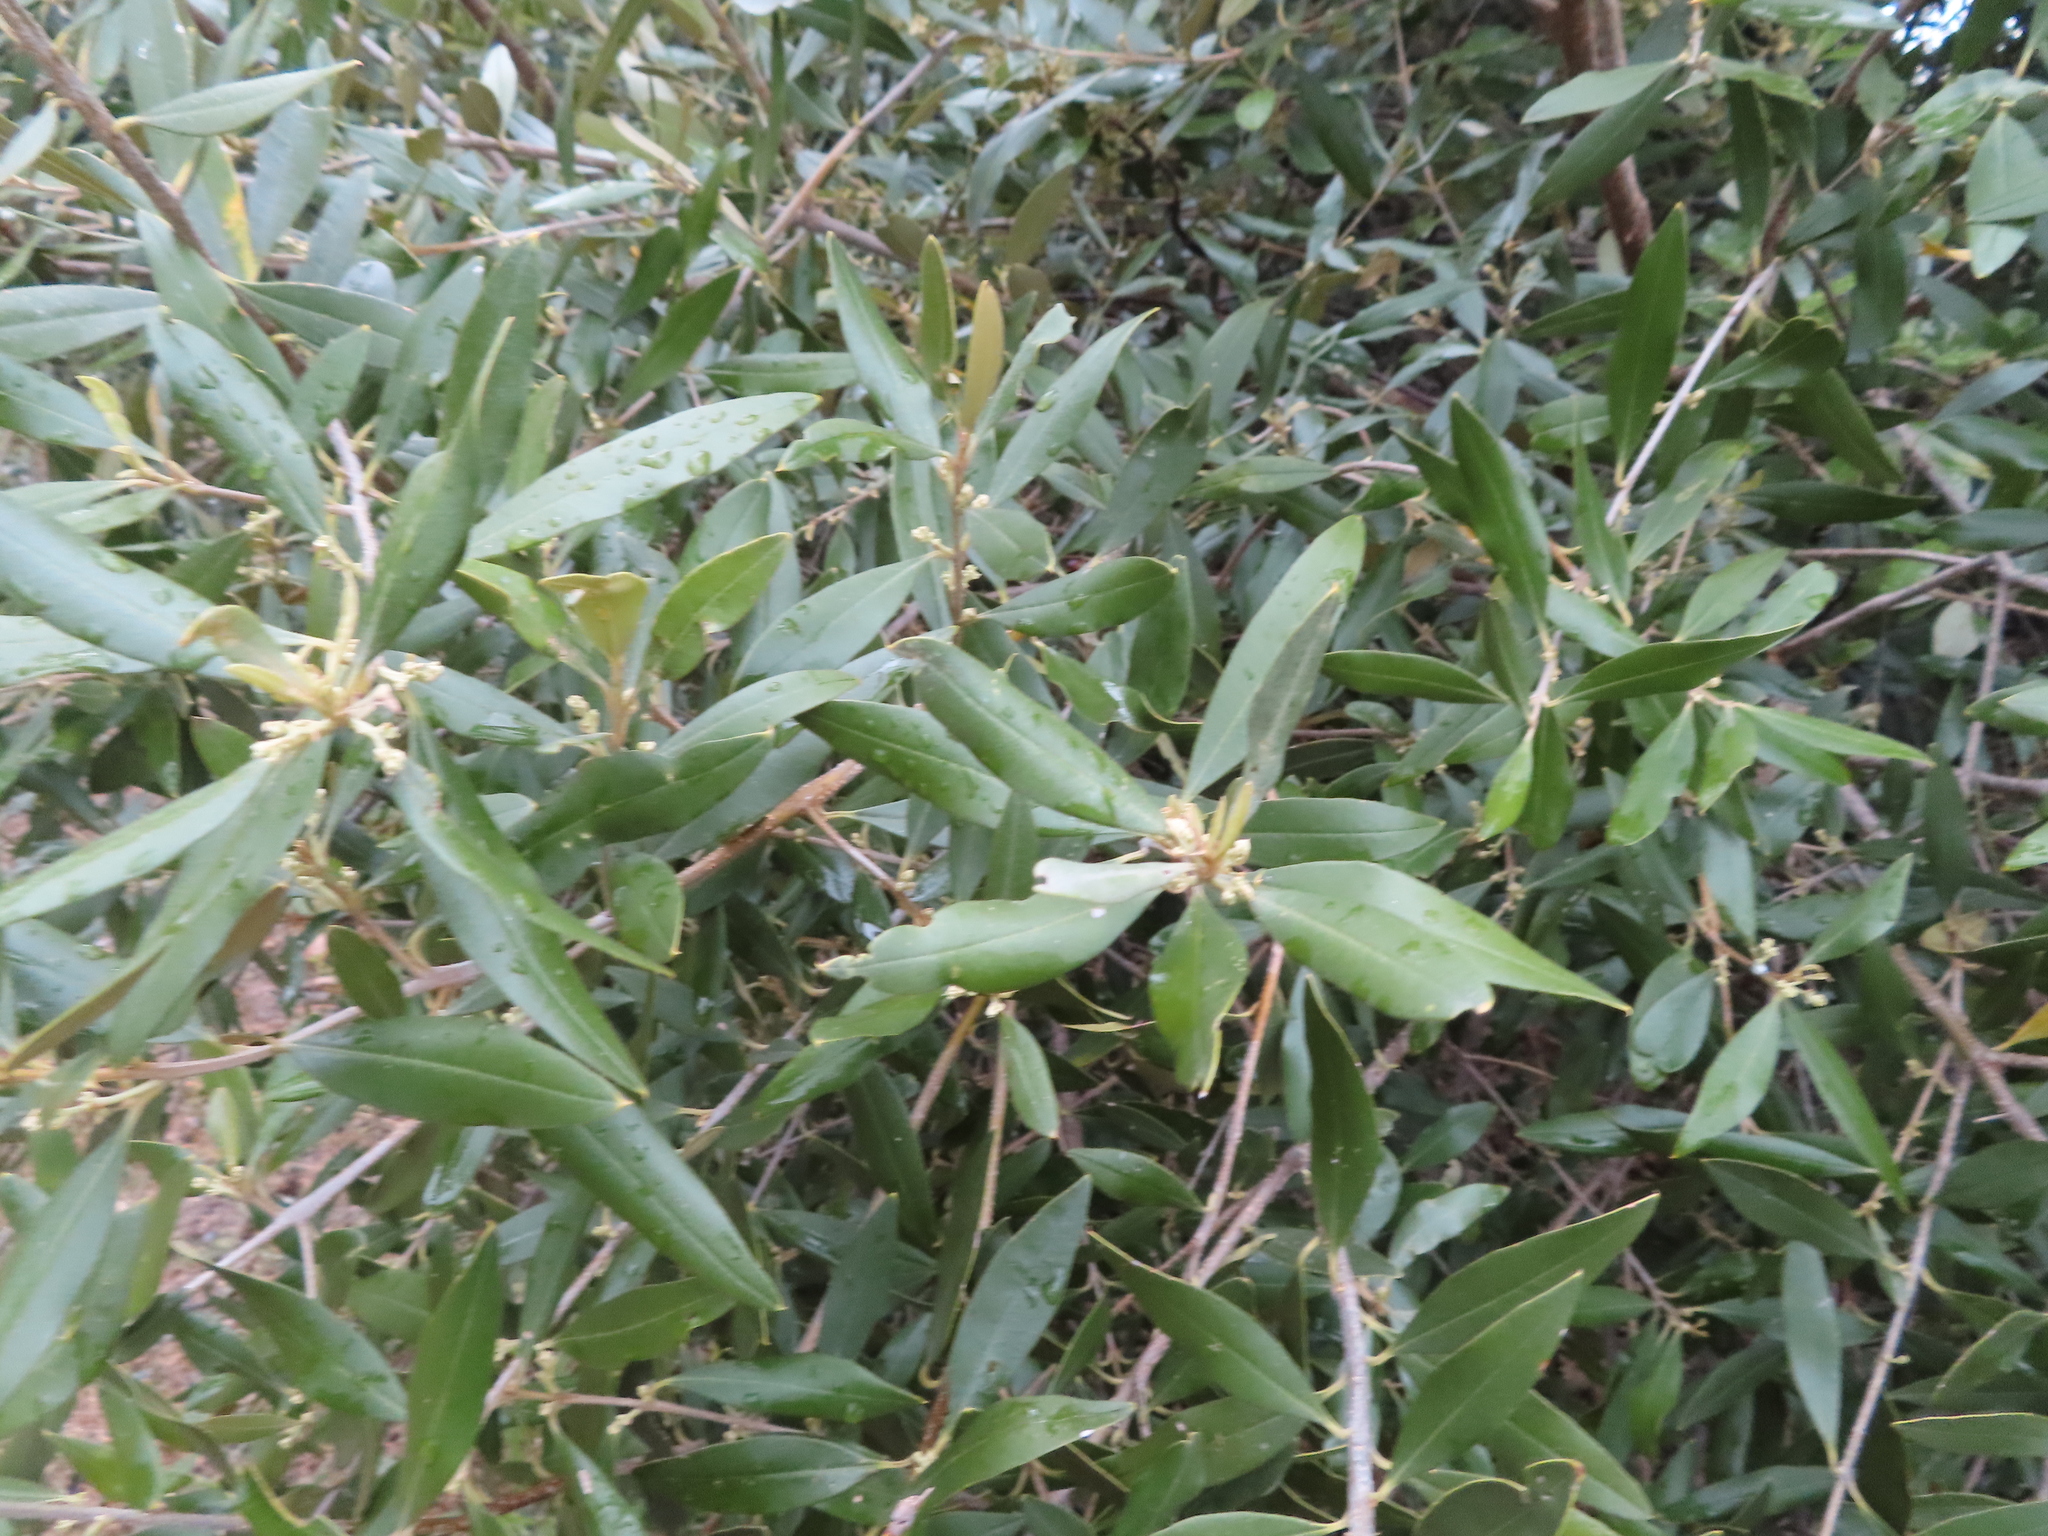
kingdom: Plantae
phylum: Tracheophyta
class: Magnoliopsida
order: Lamiales
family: Oleaceae
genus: Olea
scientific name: Olea europaea
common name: Olive
